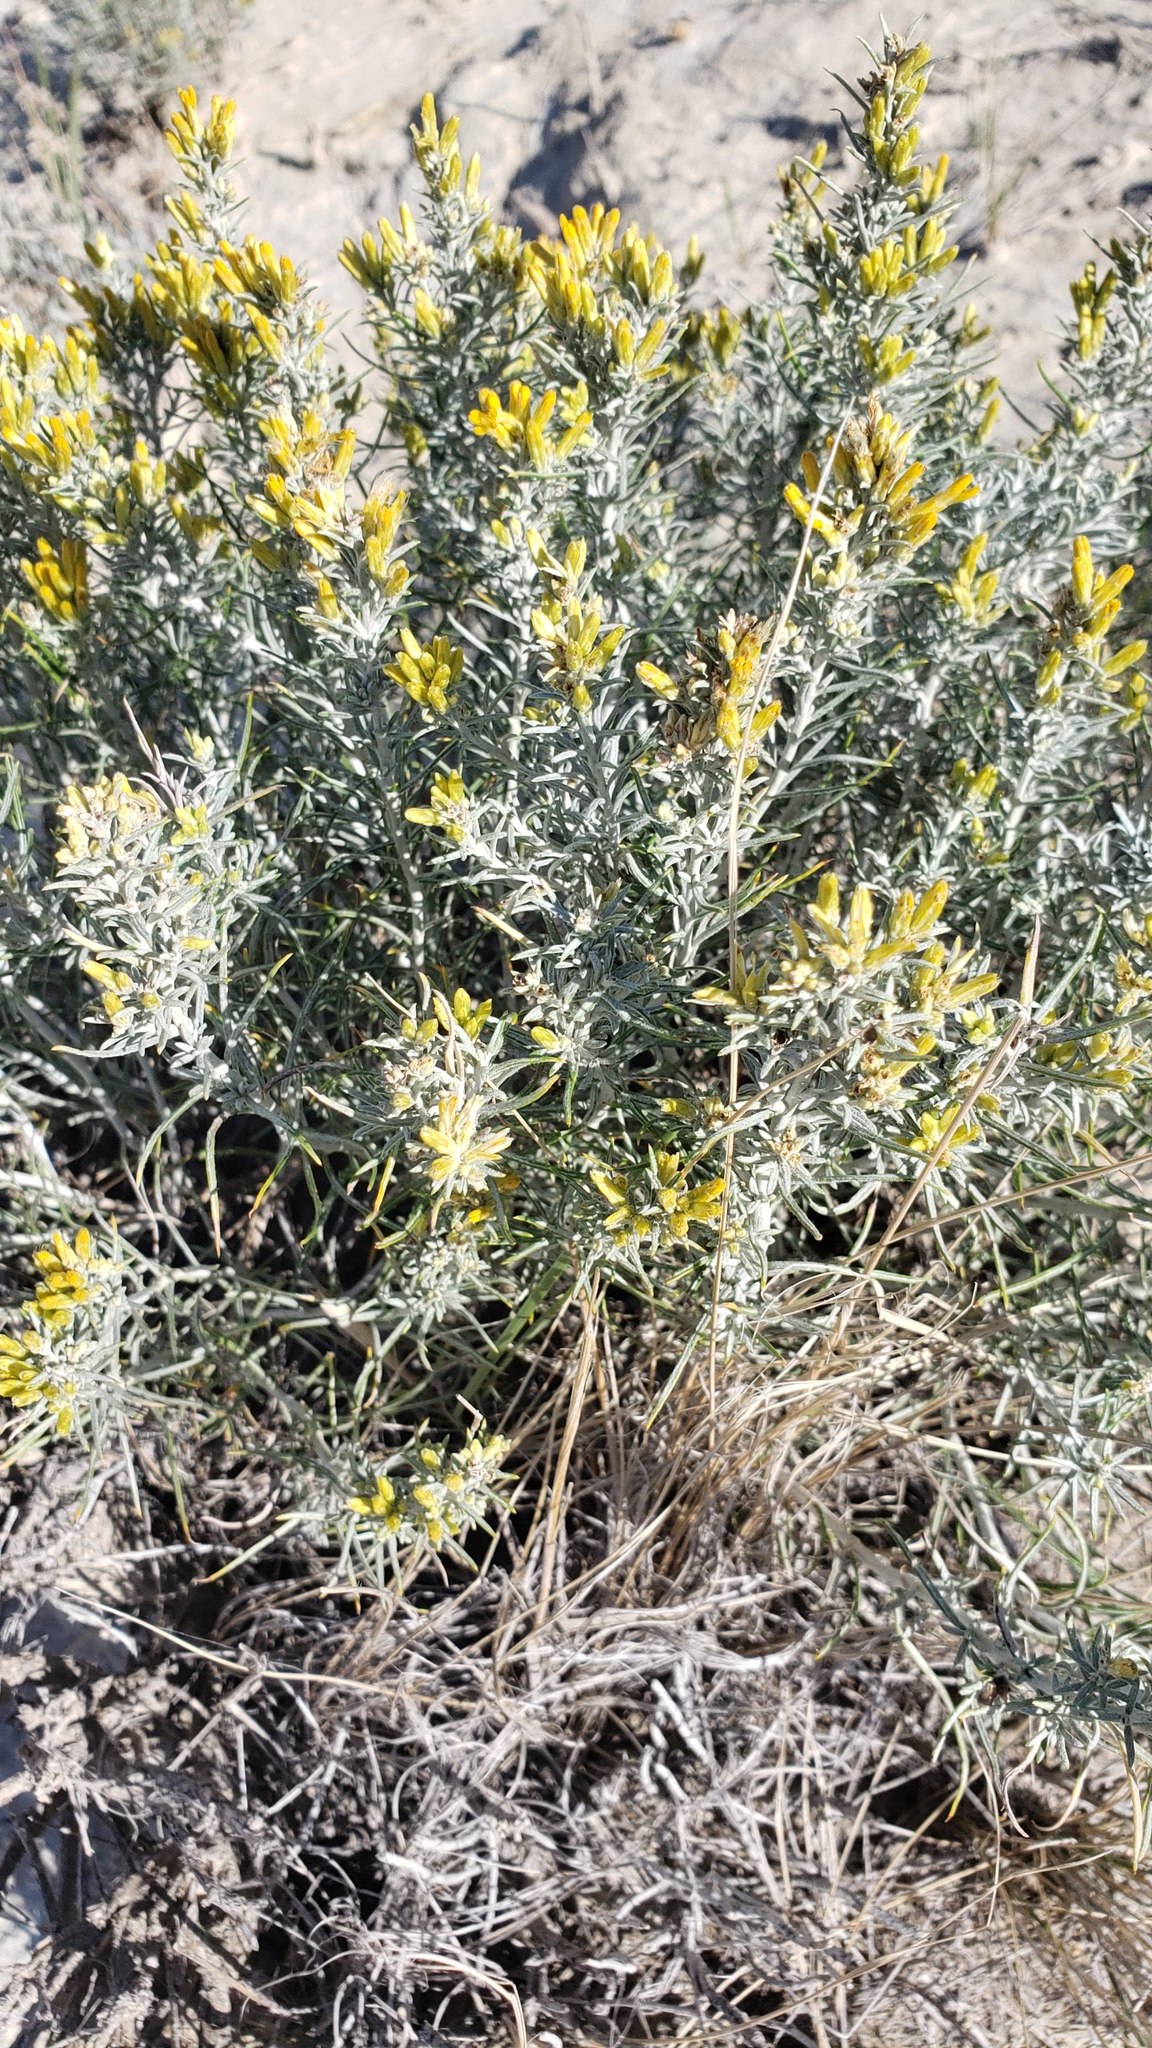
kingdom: Plantae
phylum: Tracheophyta
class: Magnoliopsida
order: Asterales
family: Asteraceae
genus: Ericameria
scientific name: Ericameria nauseosa
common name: Rubber rabbitbrush
